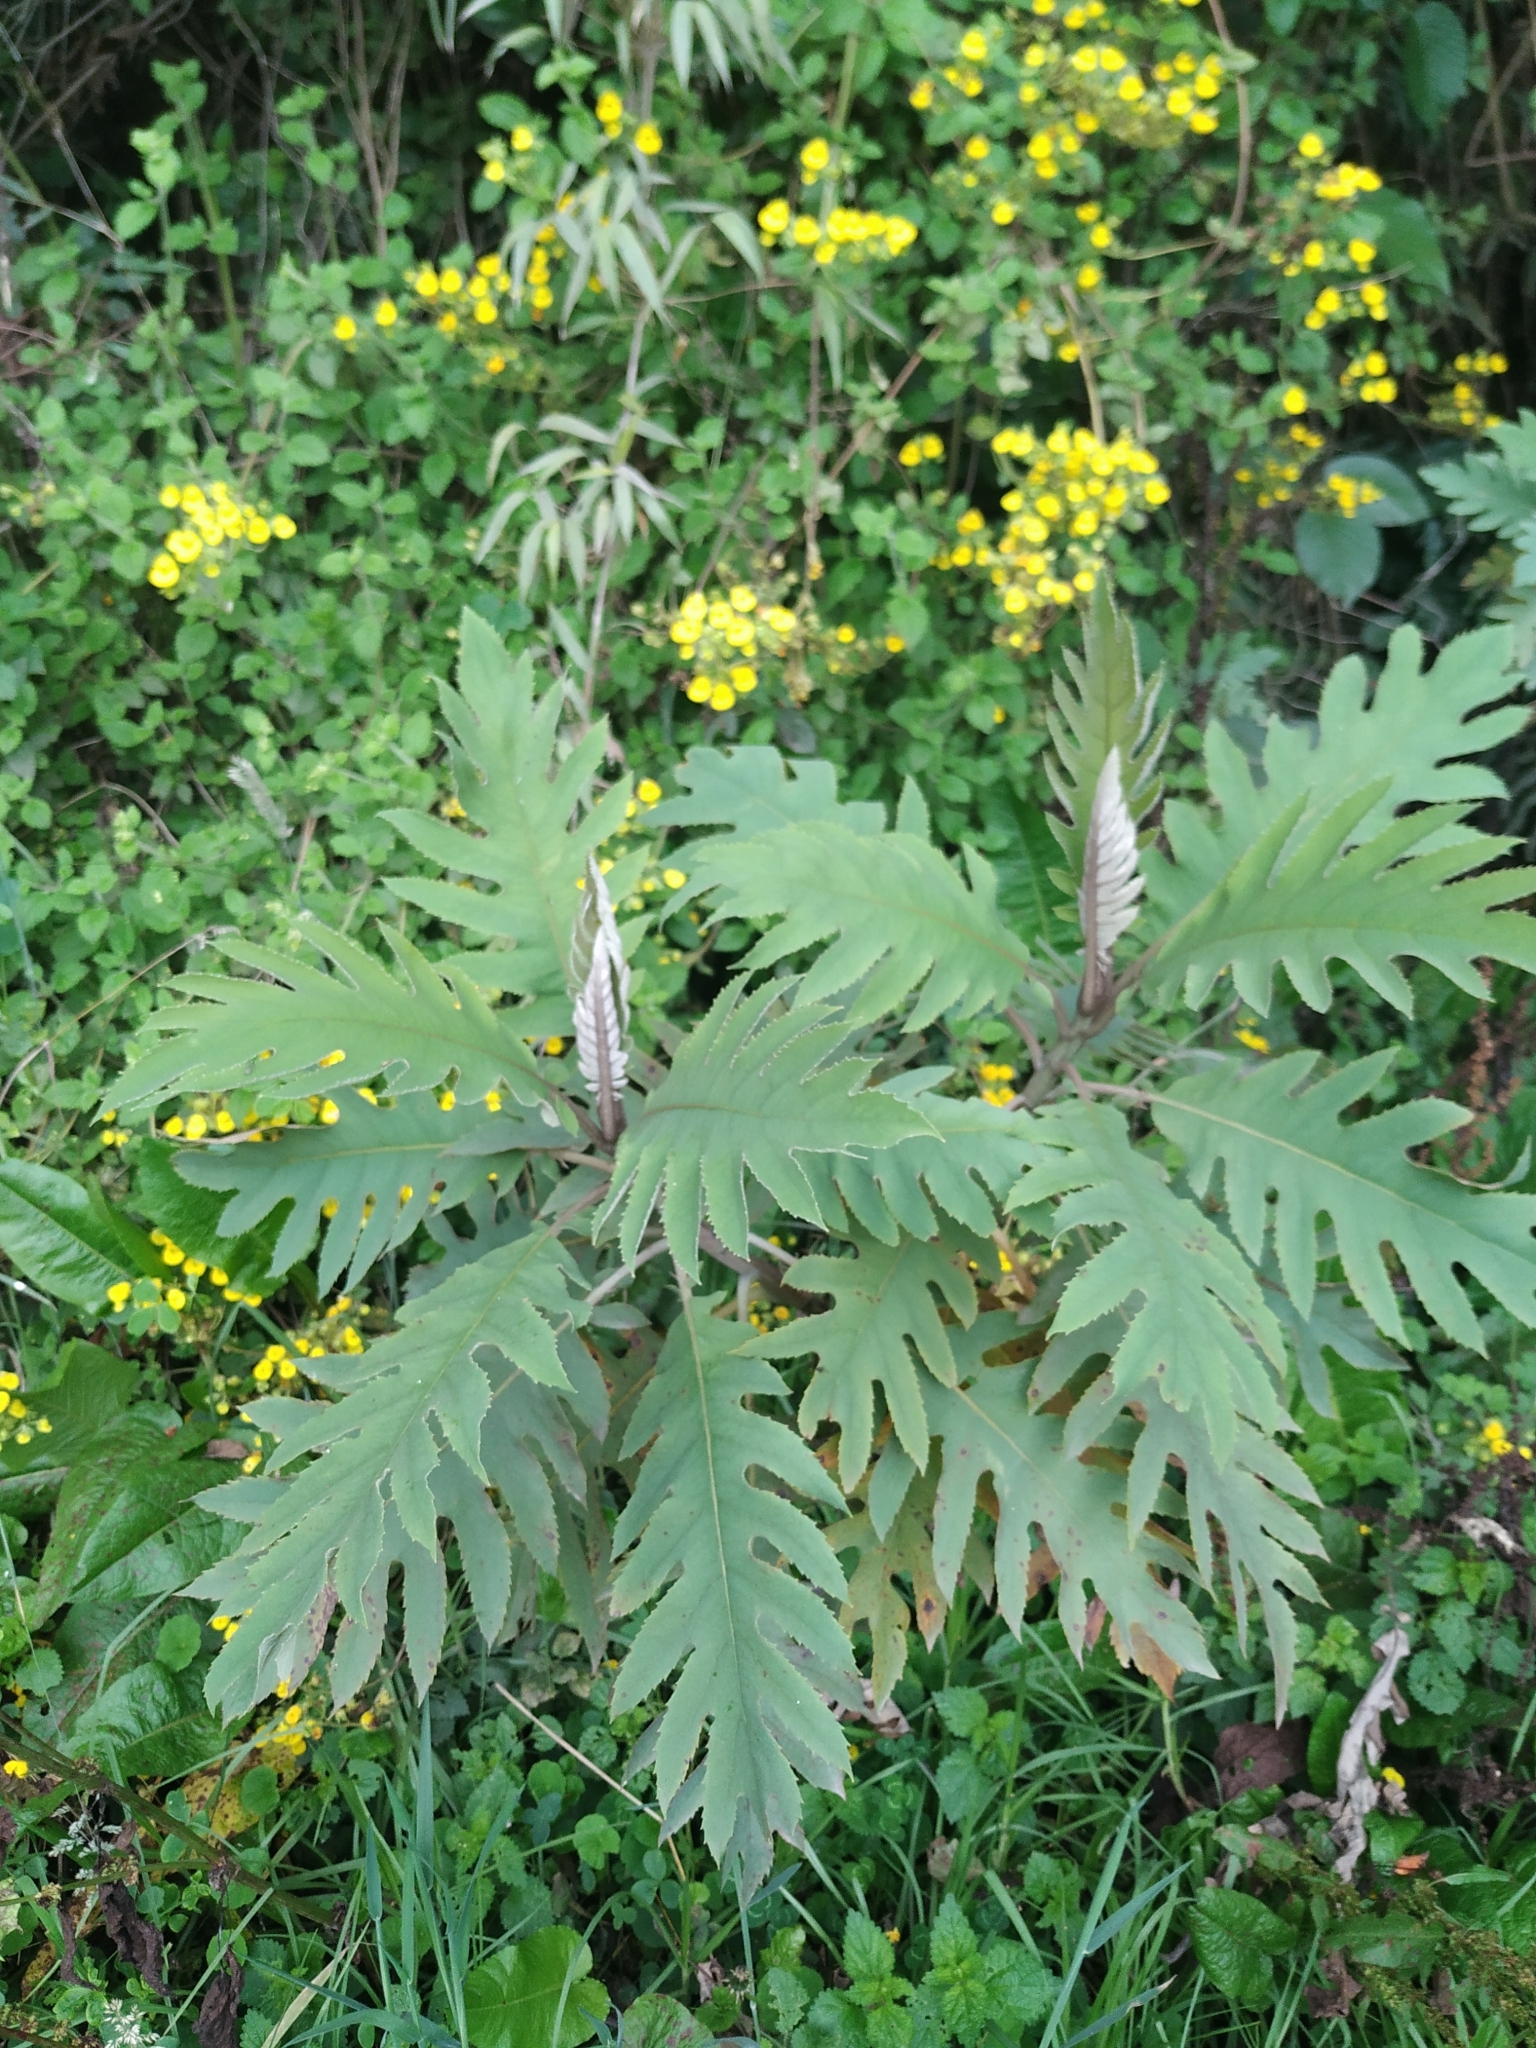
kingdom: Plantae
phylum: Tracheophyta
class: Magnoliopsida
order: Ranunculales
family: Papaveraceae
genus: Bocconia
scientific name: Bocconia frutescens
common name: Tree poppy
